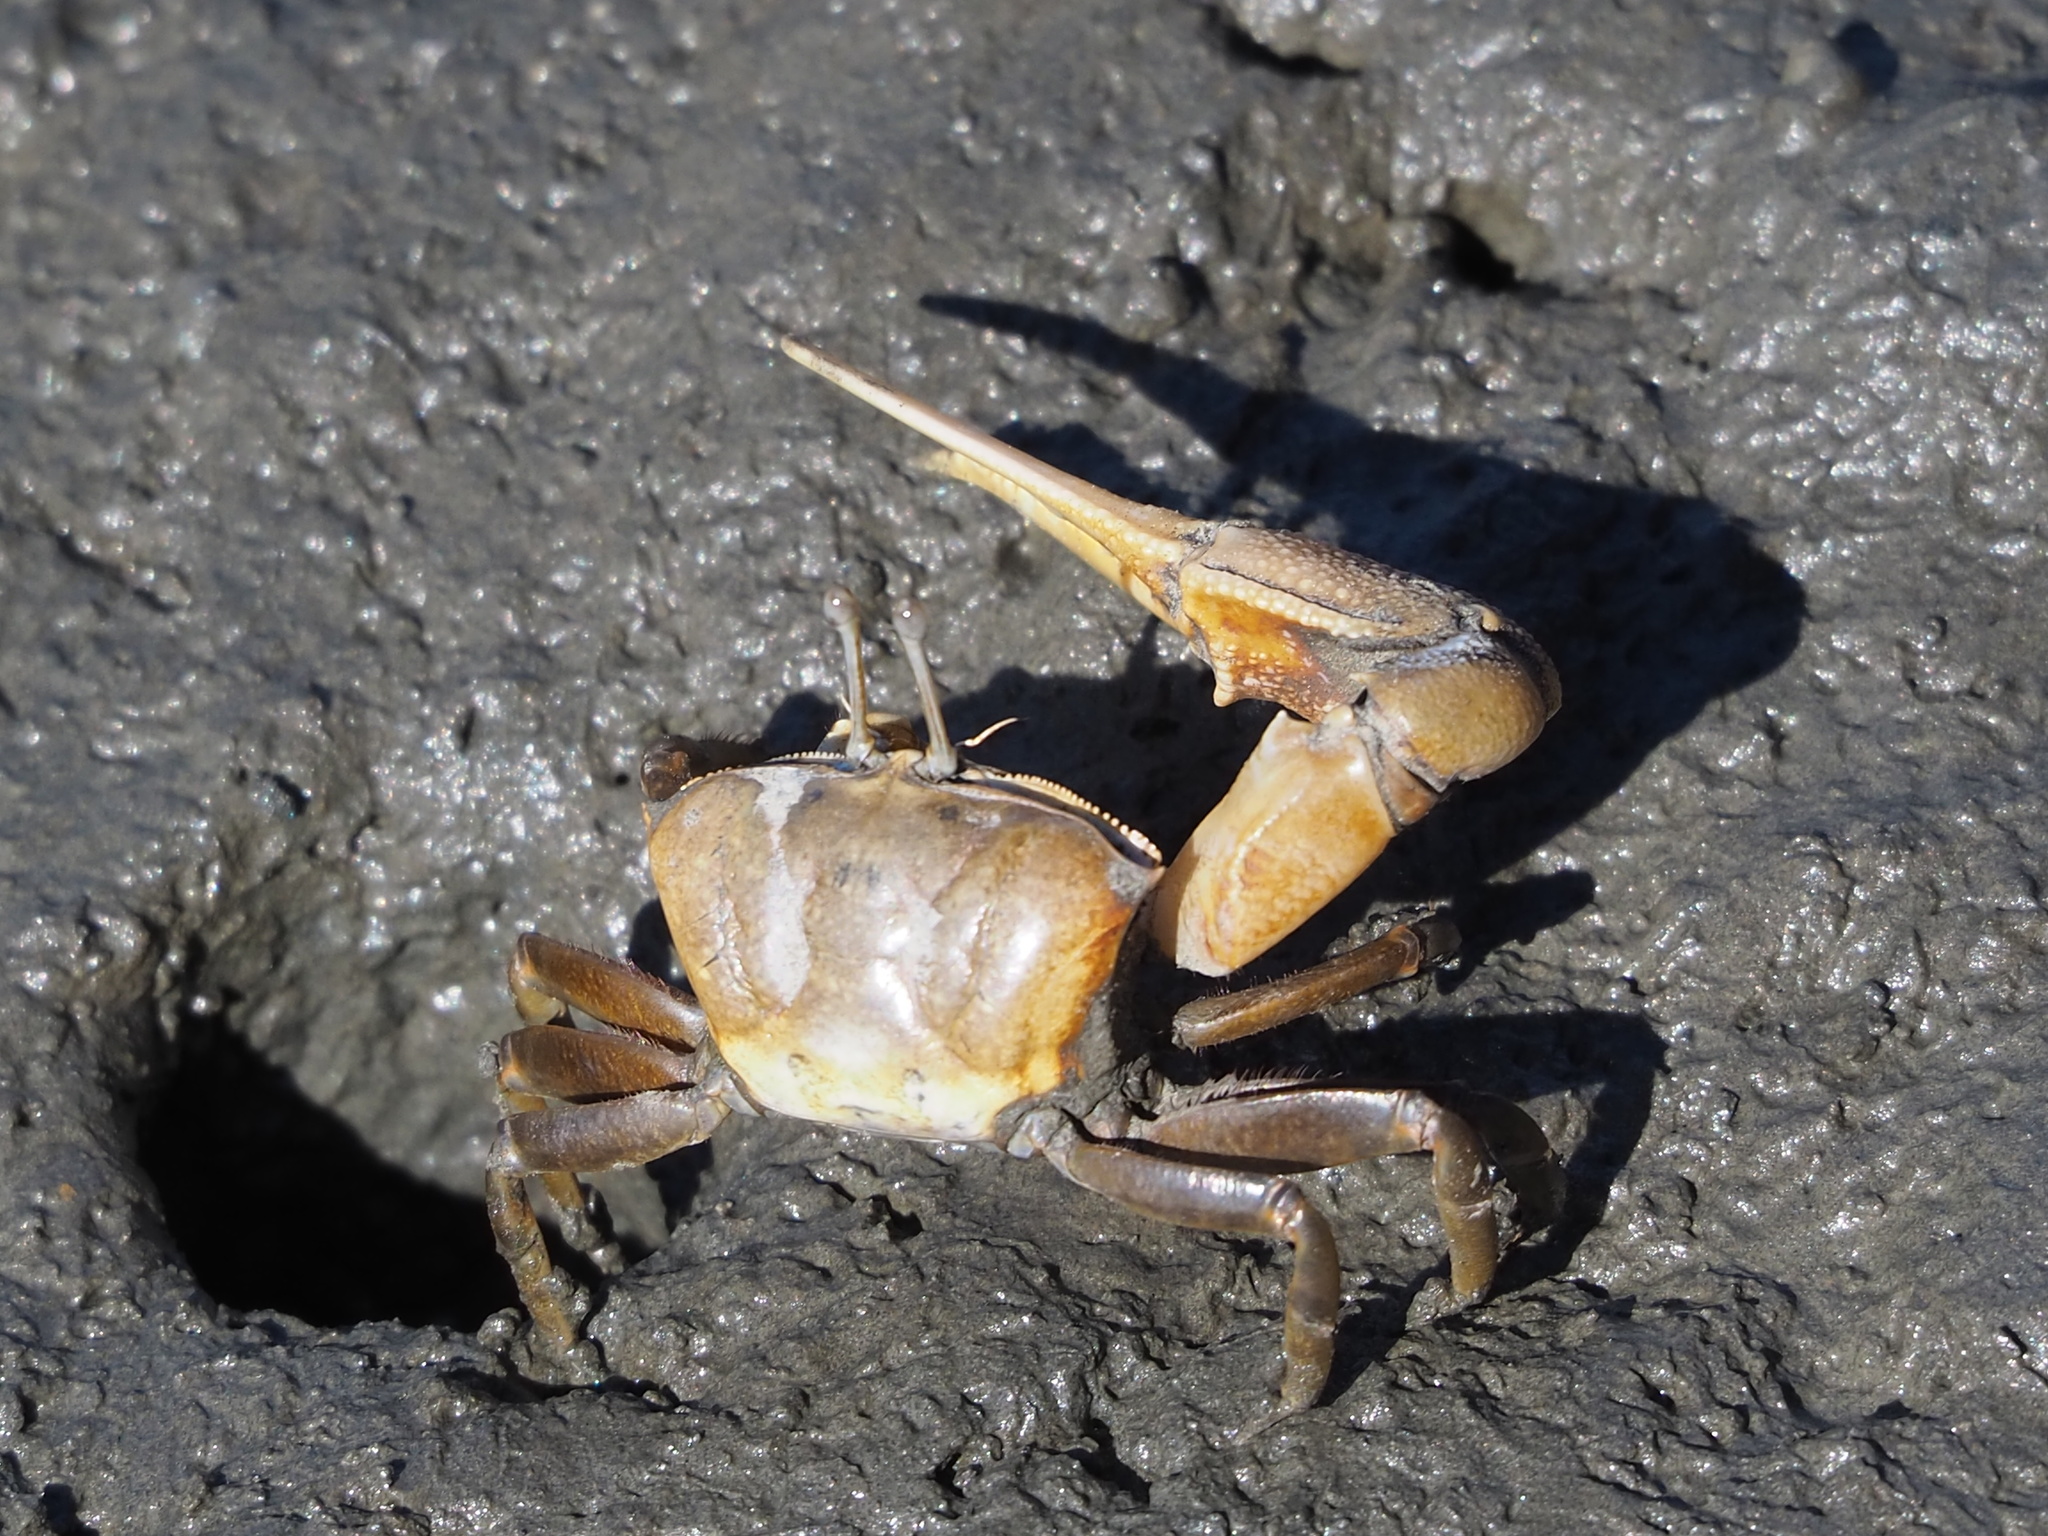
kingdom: Animalia
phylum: Arthropoda
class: Malacostraca
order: Decapoda
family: Ocypodidae
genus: Gelasimus
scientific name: Gelasimus borealis
